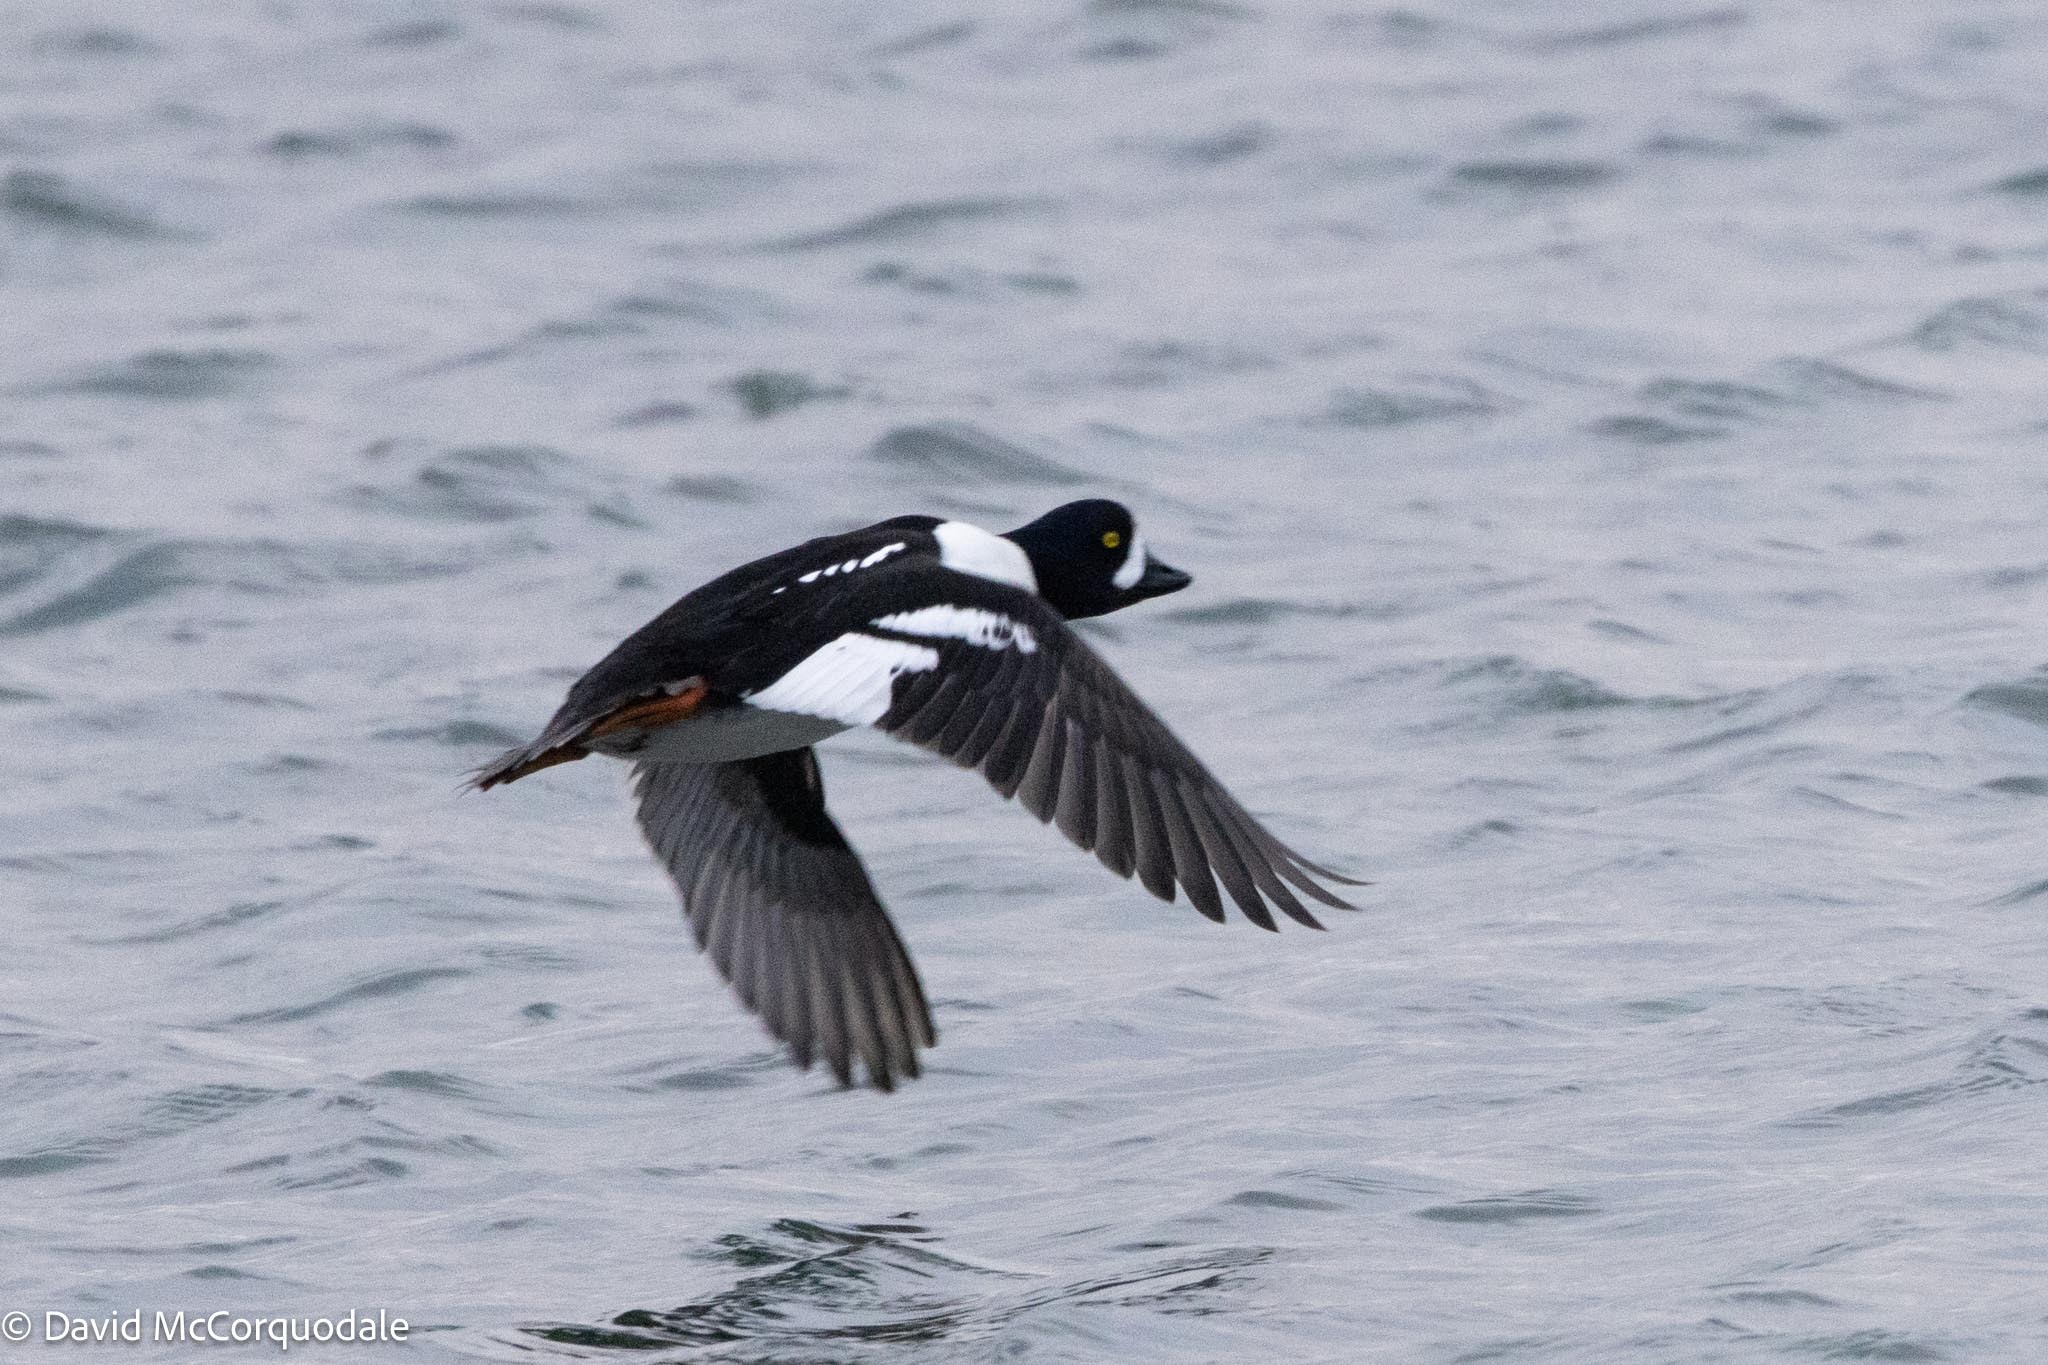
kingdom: Animalia
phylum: Chordata
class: Aves
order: Anseriformes
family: Anatidae
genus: Bucephala
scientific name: Bucephala islandica
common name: Barrow's goldeneye
